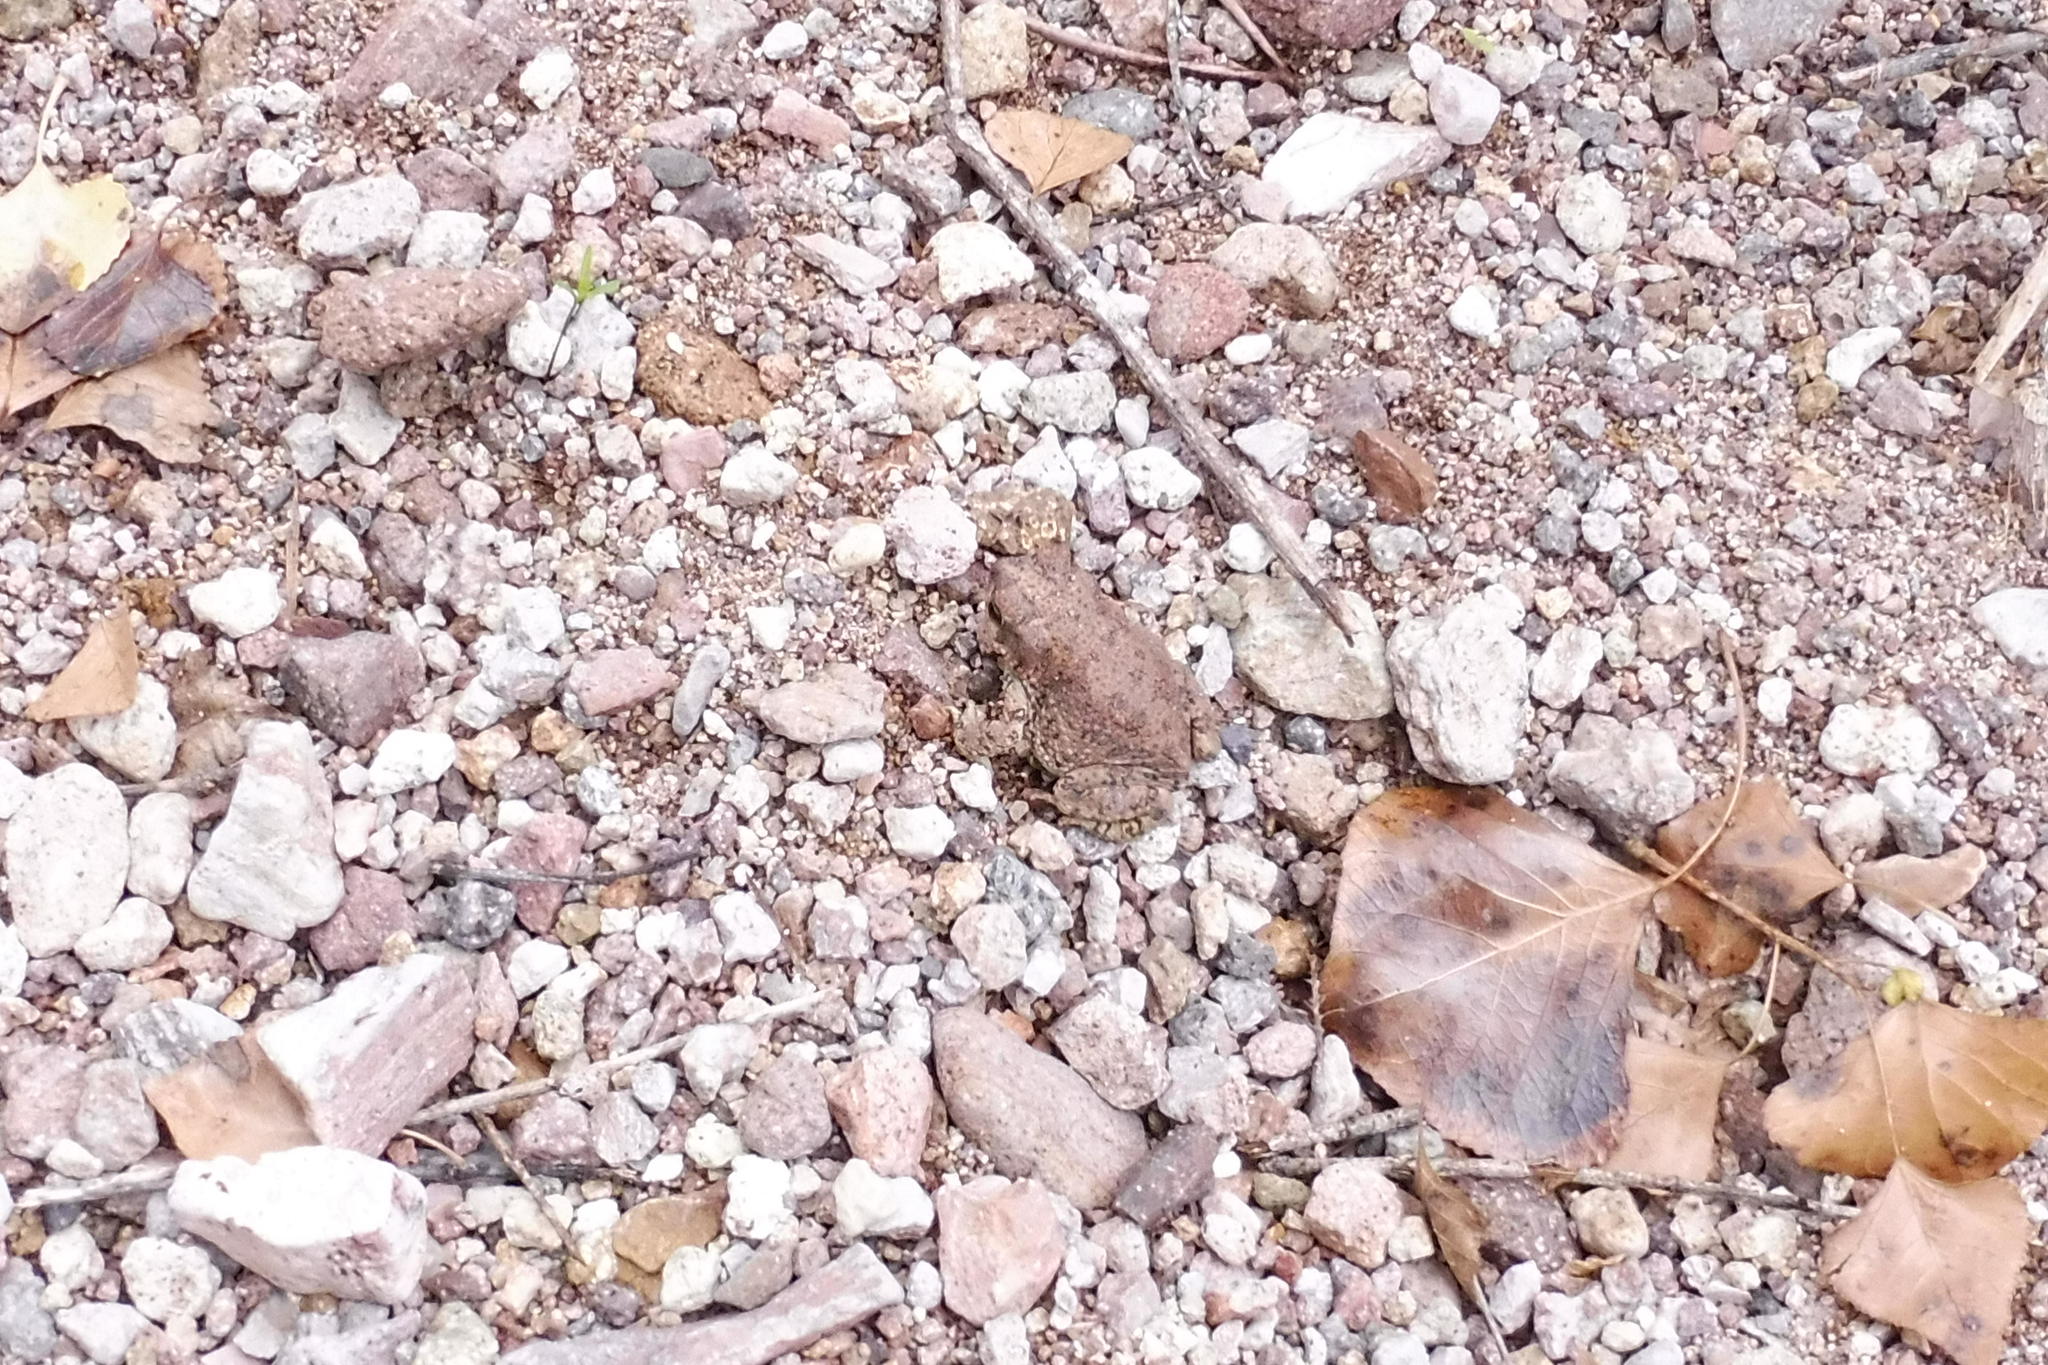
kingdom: Animalia
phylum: Chordata
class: Amphibia
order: Anura
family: Bufonidae
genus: Anaxyrus
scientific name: Anaxyrus punctatus
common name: Red-spotted toad
